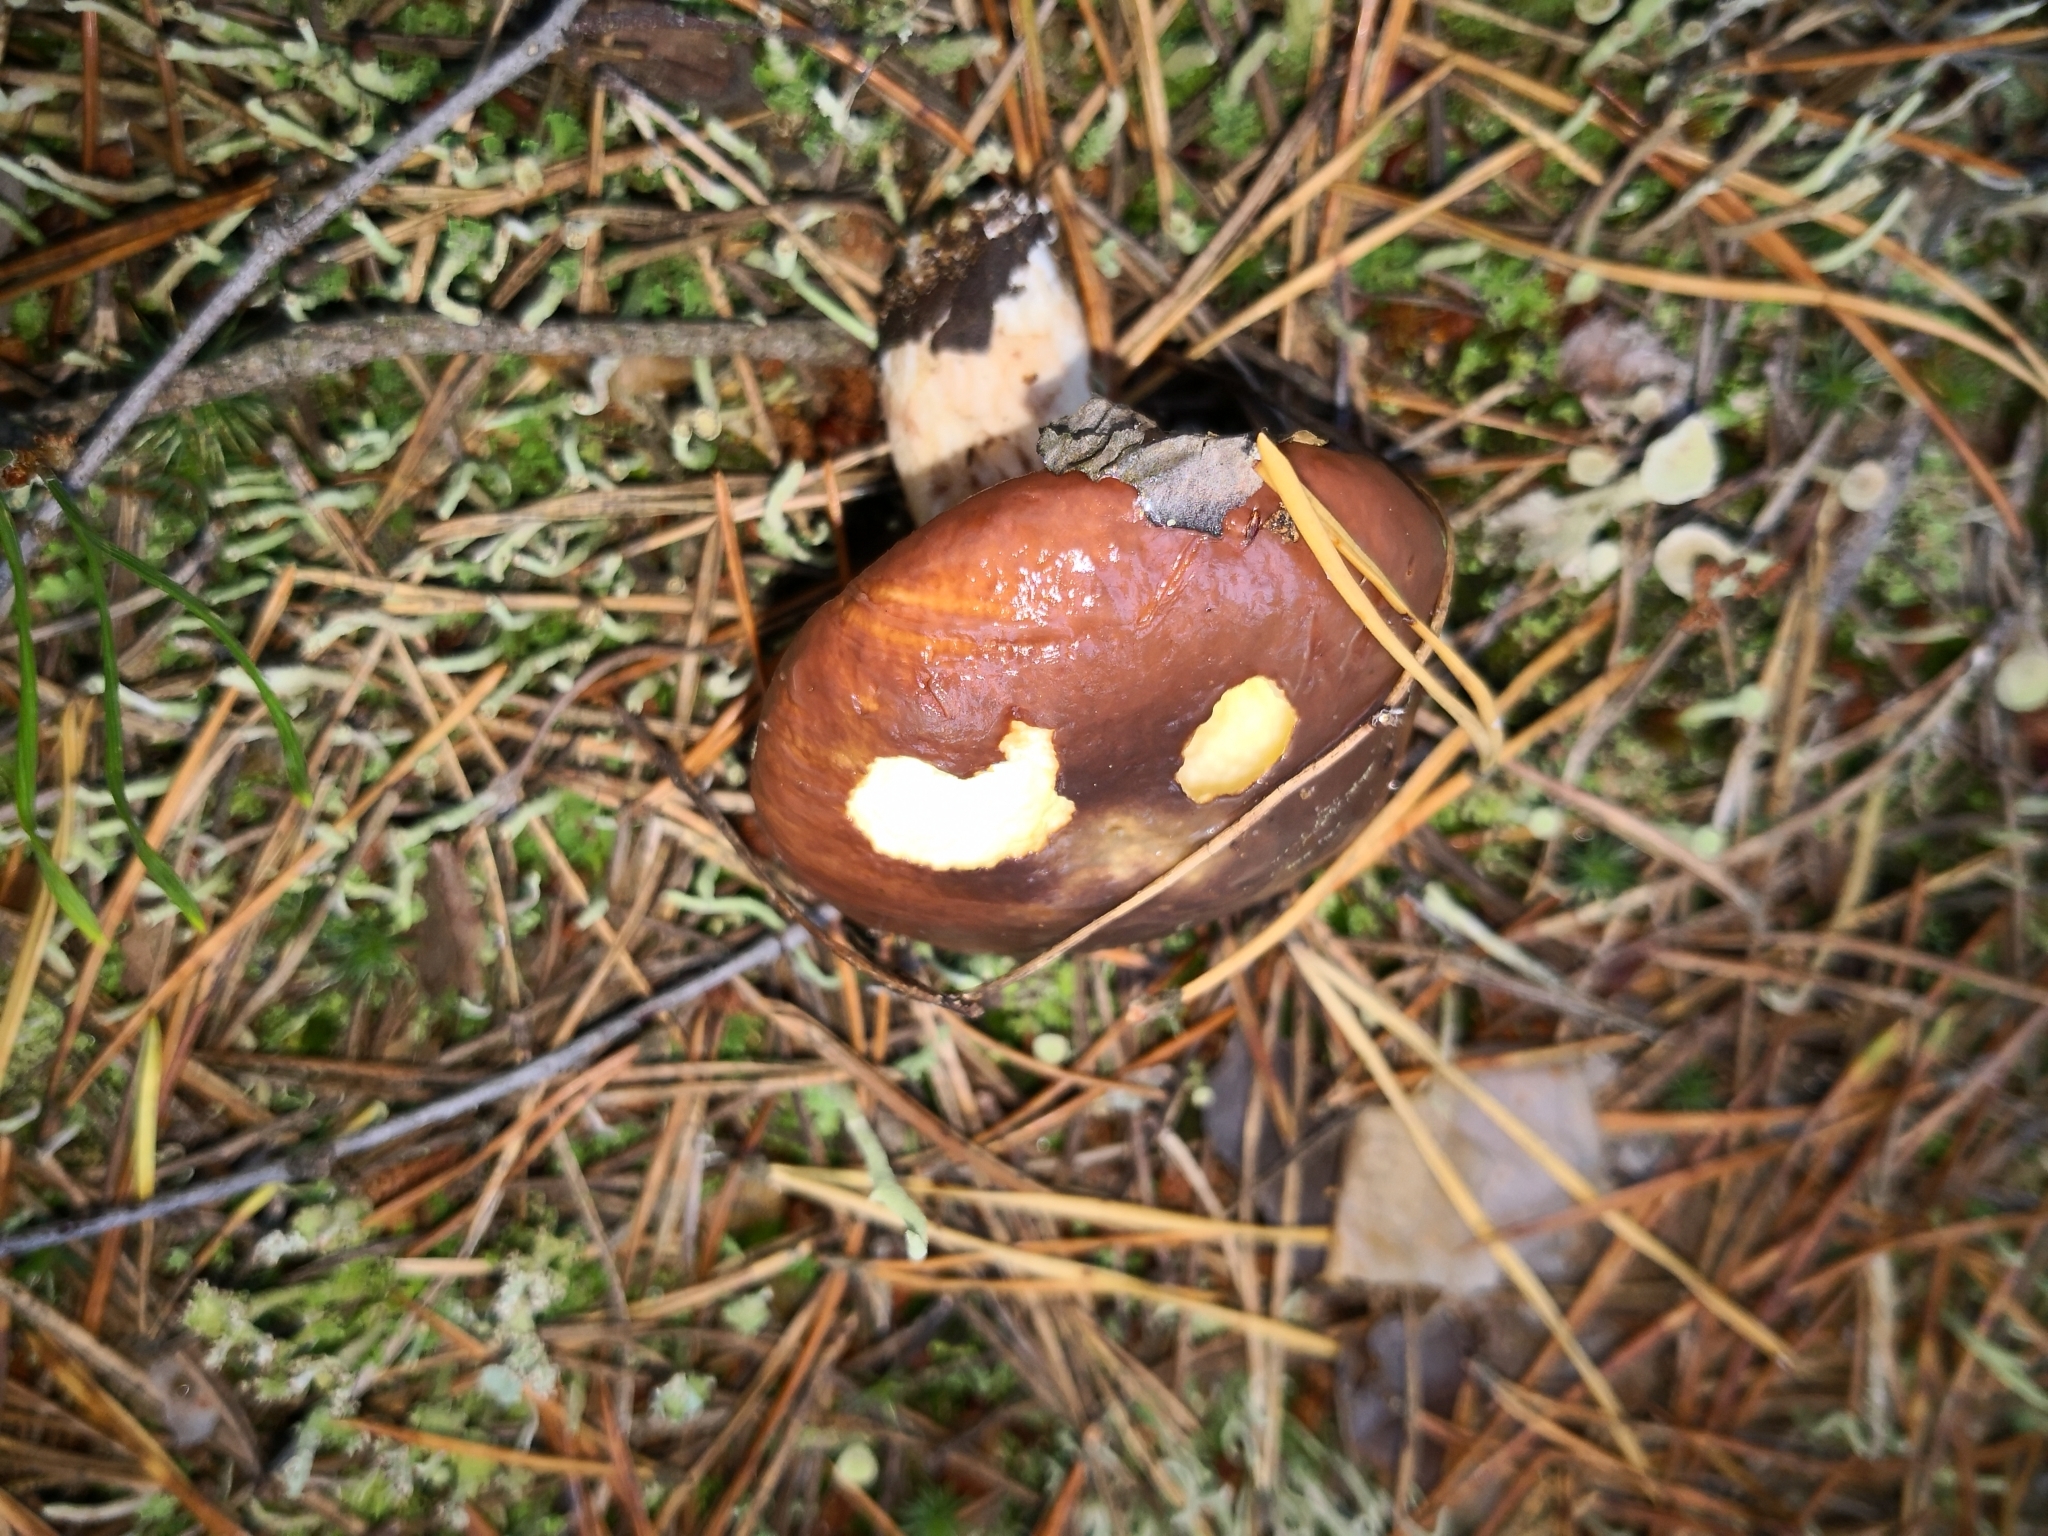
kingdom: Fungi
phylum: Basidiomycota
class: Agaricomycetes
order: Boletales
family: Suillaceae
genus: Suillus
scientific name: Suillus luteus
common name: Slippery jack
